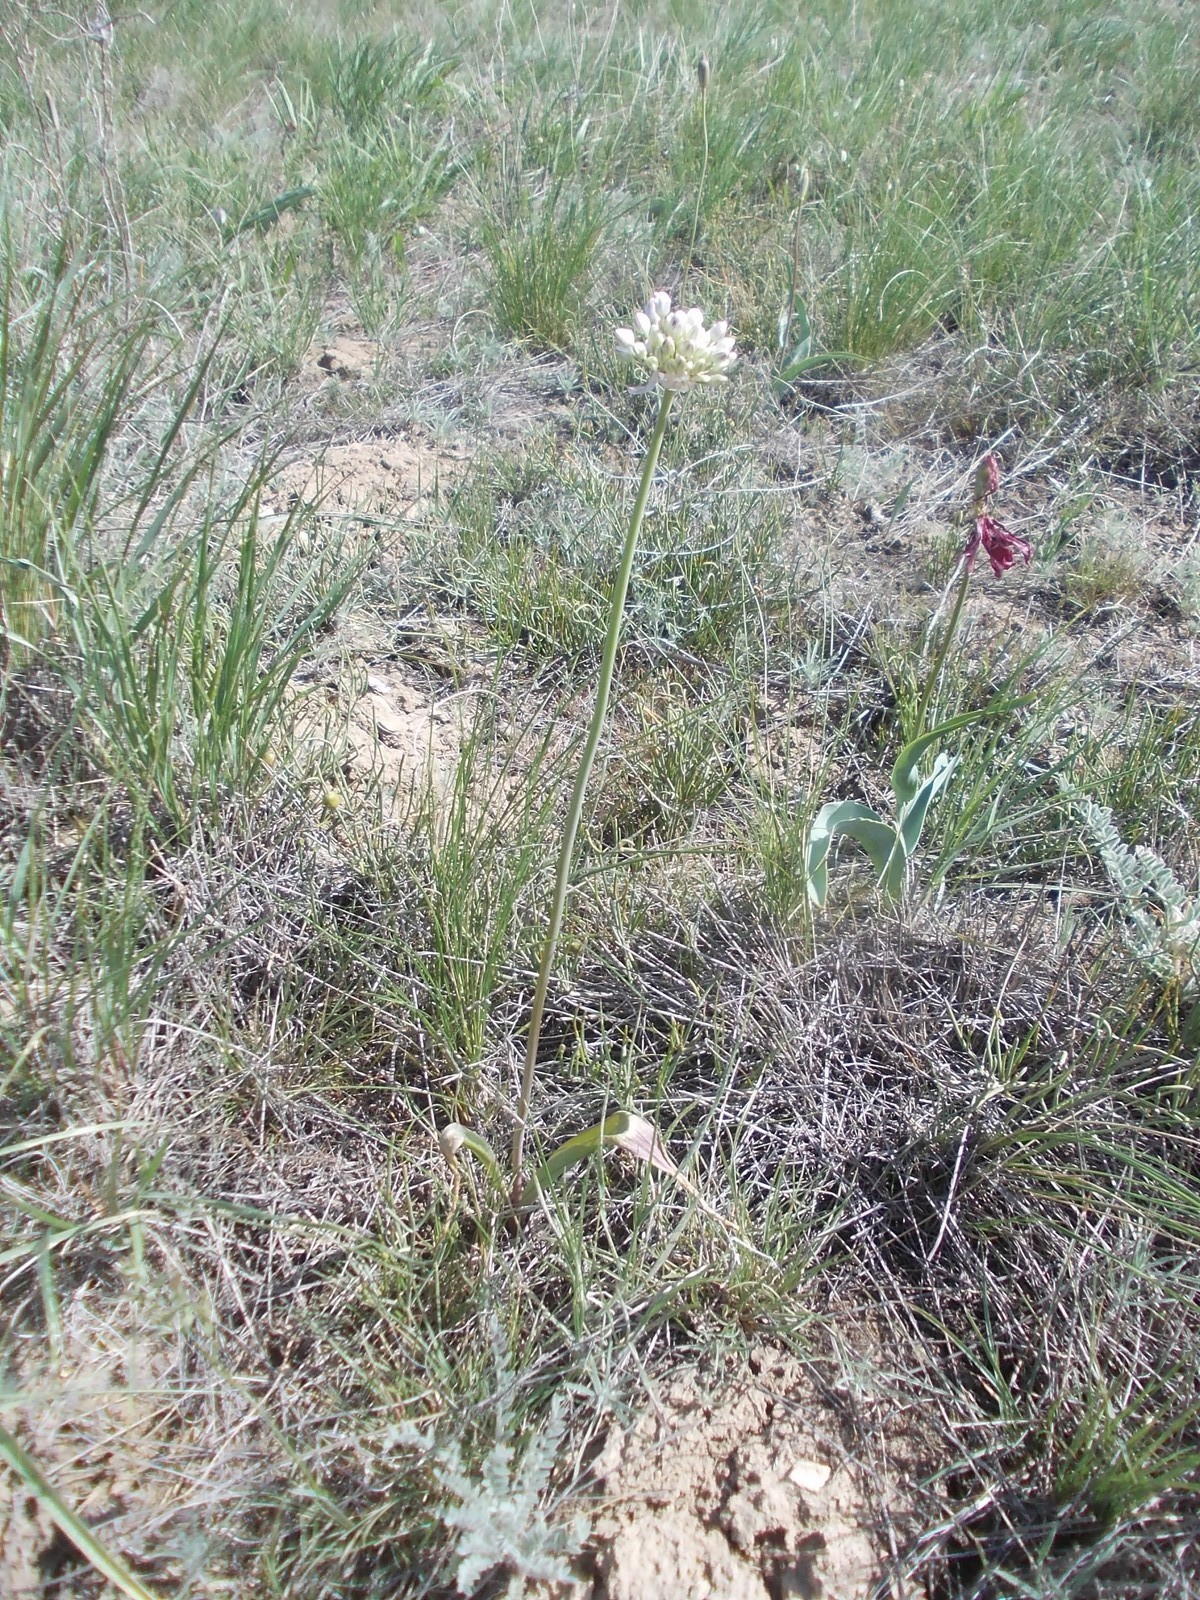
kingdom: Plantae
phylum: Tracheophyta
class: Liliopsida
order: Asparagales
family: Amaryllidaceae
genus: Allium
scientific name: Allium tulipifolium
